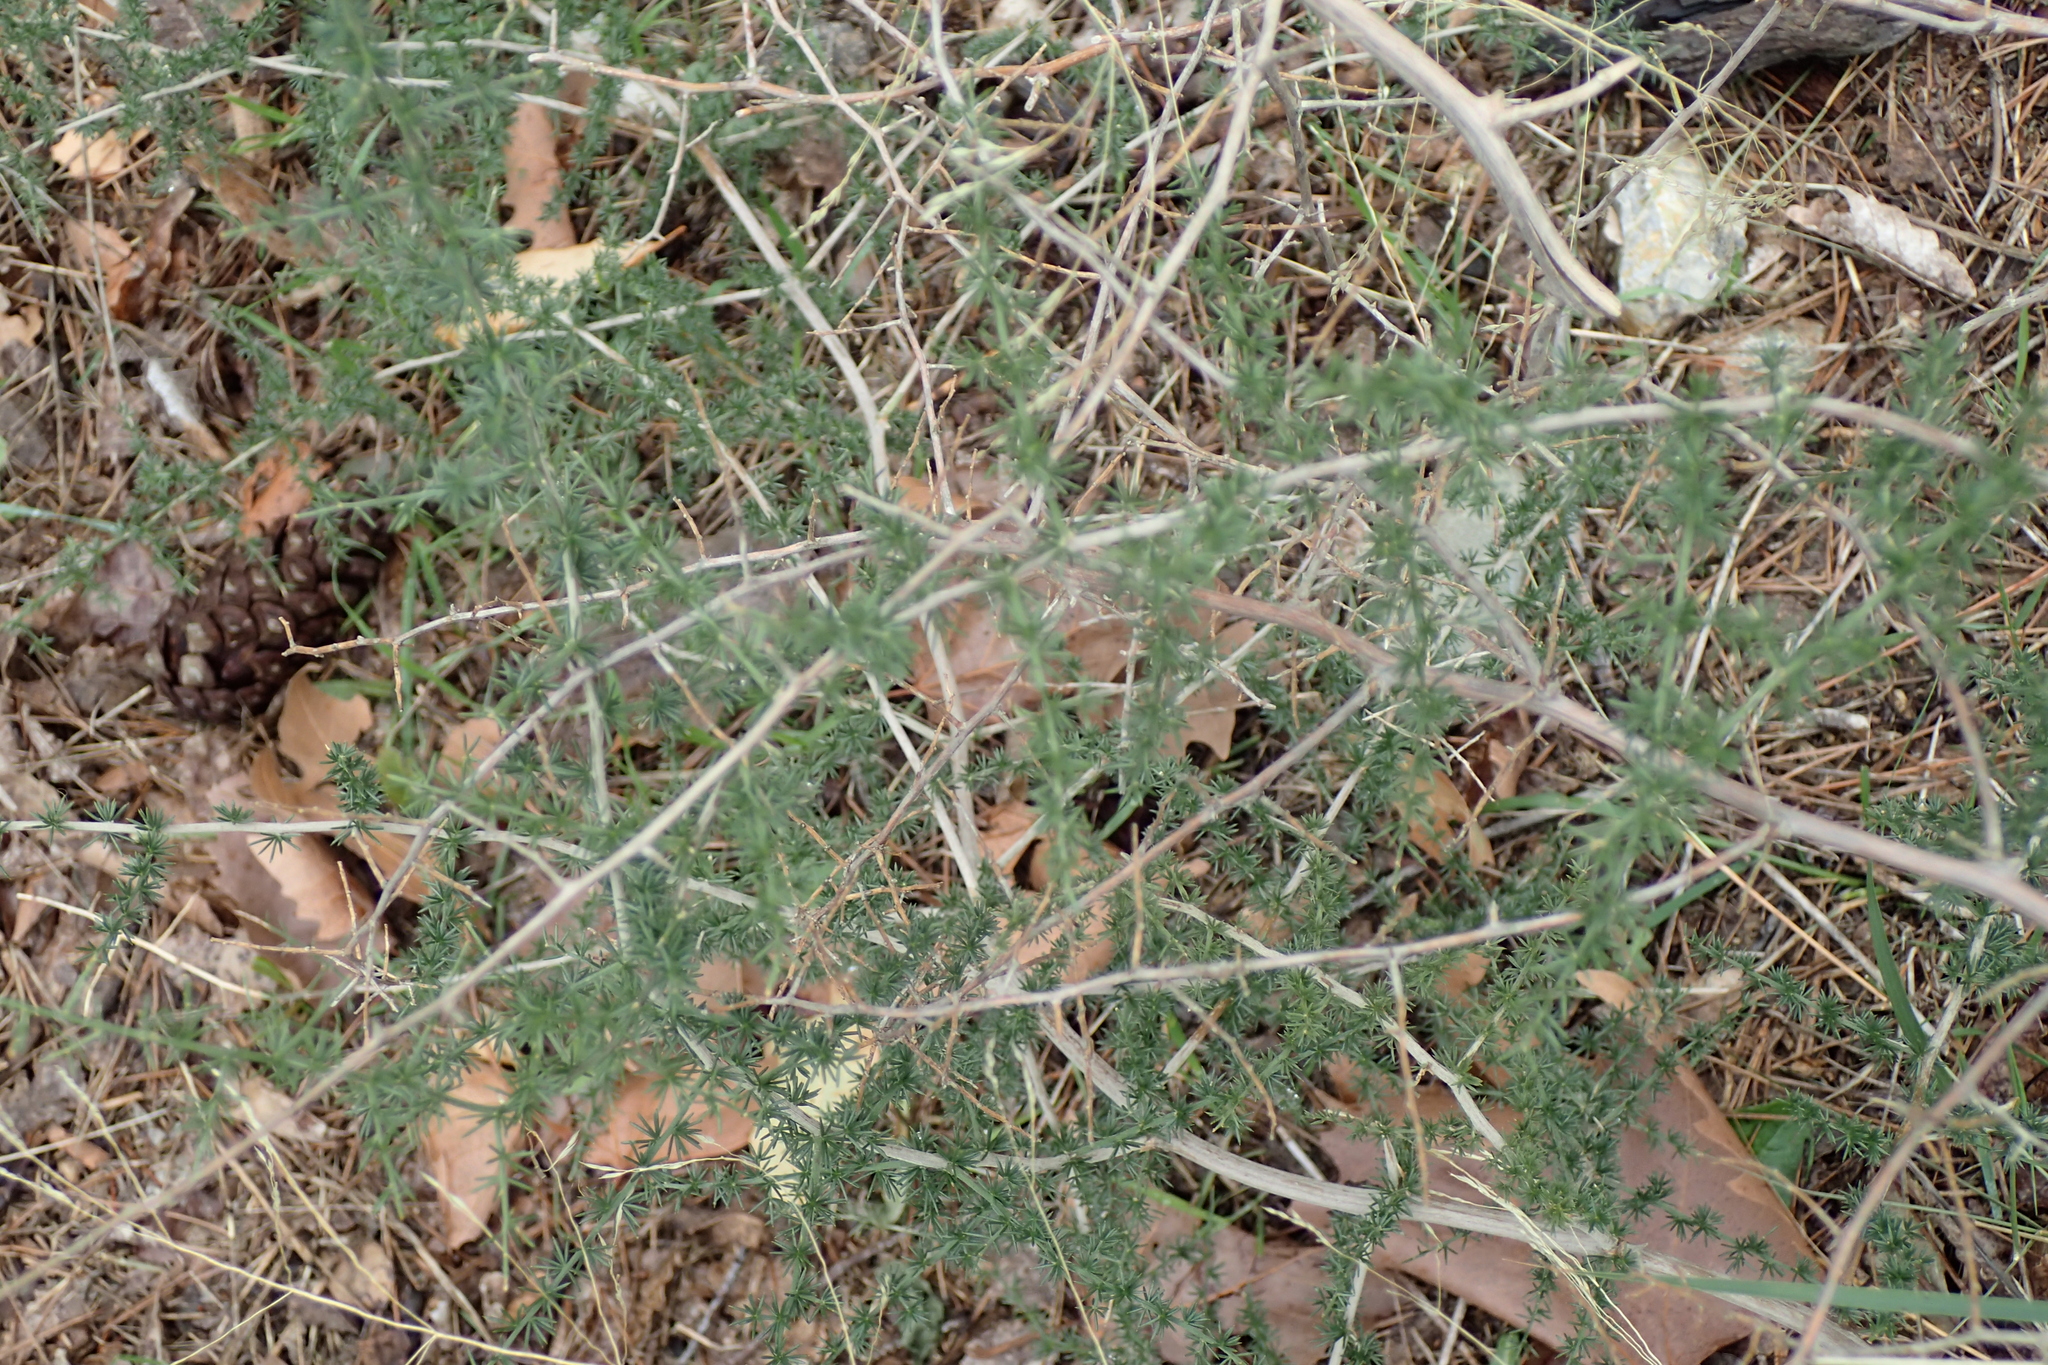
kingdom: Plantae
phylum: Tracheophyta
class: Liliopsida
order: Asparagales
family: Asparagaceae
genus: Asparagus
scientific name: Asparagus acutifolius
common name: Wild asparagus
